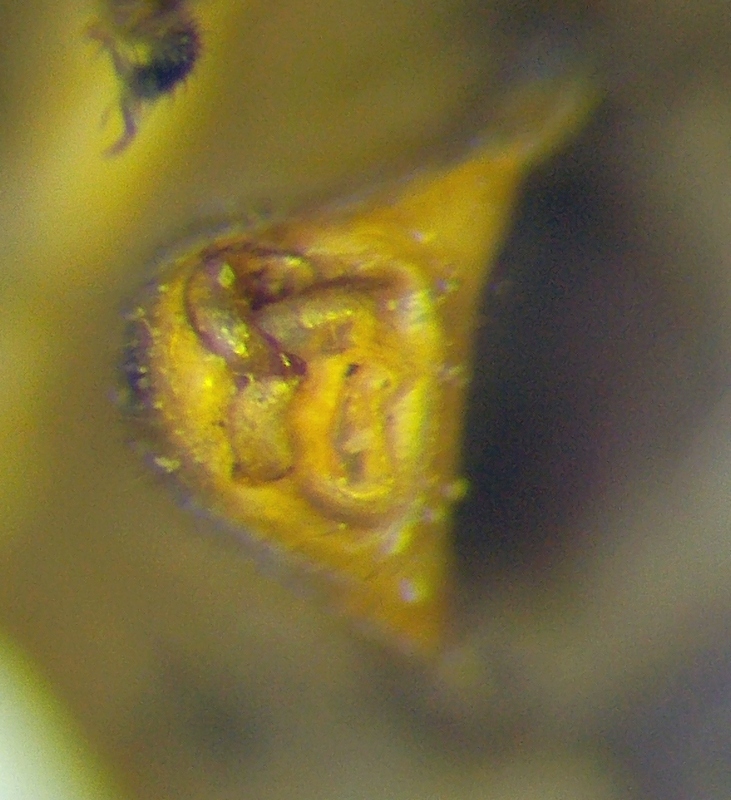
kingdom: Animalia
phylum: Arthropoda
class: Insecta
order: Hemiptera
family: Miridae
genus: Orthops
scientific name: Orthops kalmii
